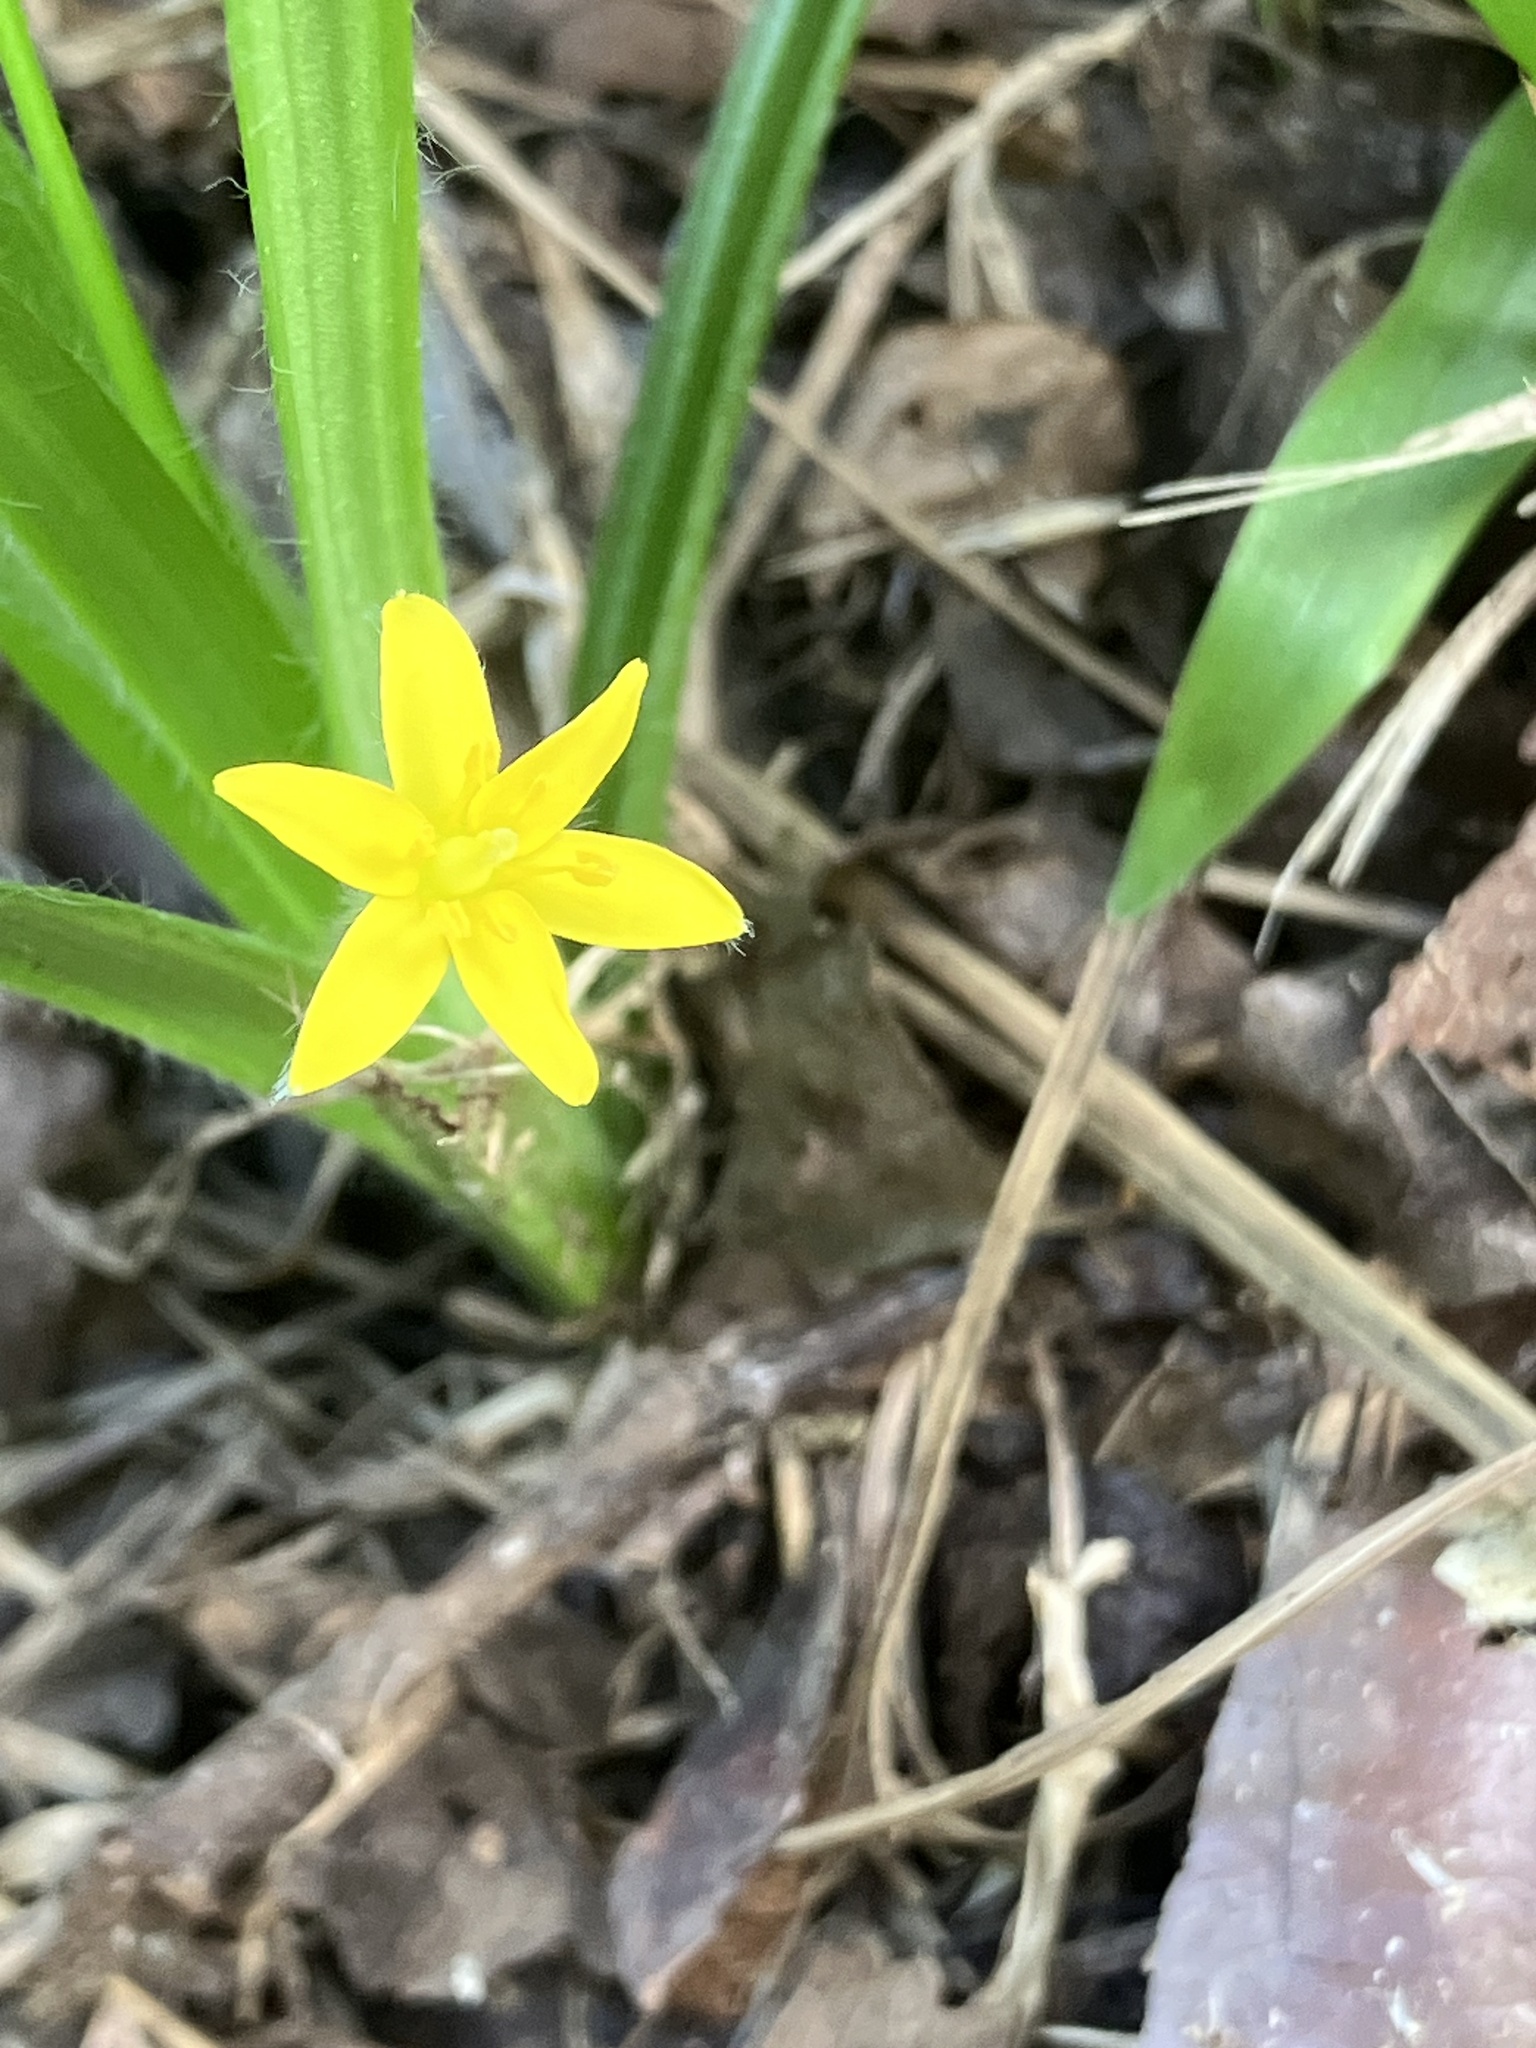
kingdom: Plantae
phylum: Tracheophyta
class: Liliopsida
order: Asparagales
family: Hypoxidaceae
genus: Hypoxis
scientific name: Hypoxis decumbens
